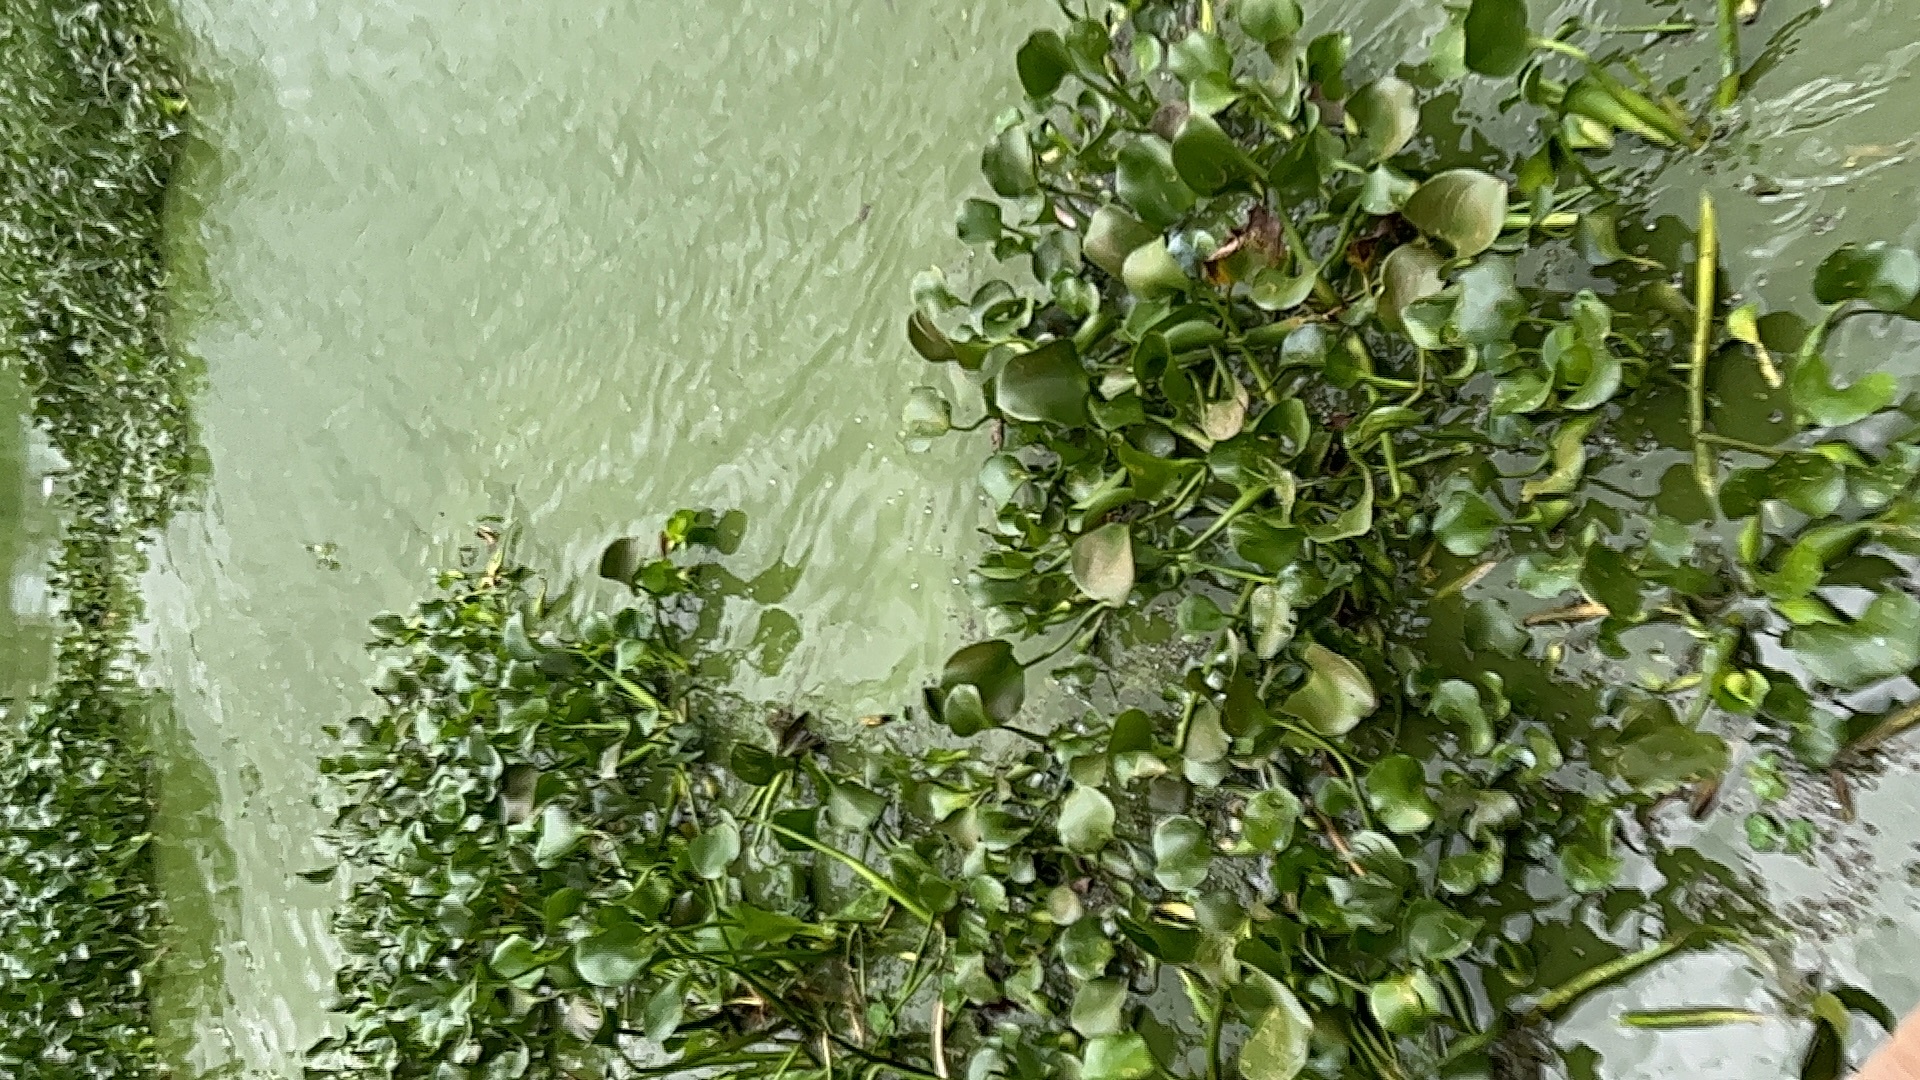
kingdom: Plantae
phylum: Tracheophyta
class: Liliopsida
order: Commelinales
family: Pontederiaceae
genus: Pontederia
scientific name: Pontederia crassipes
